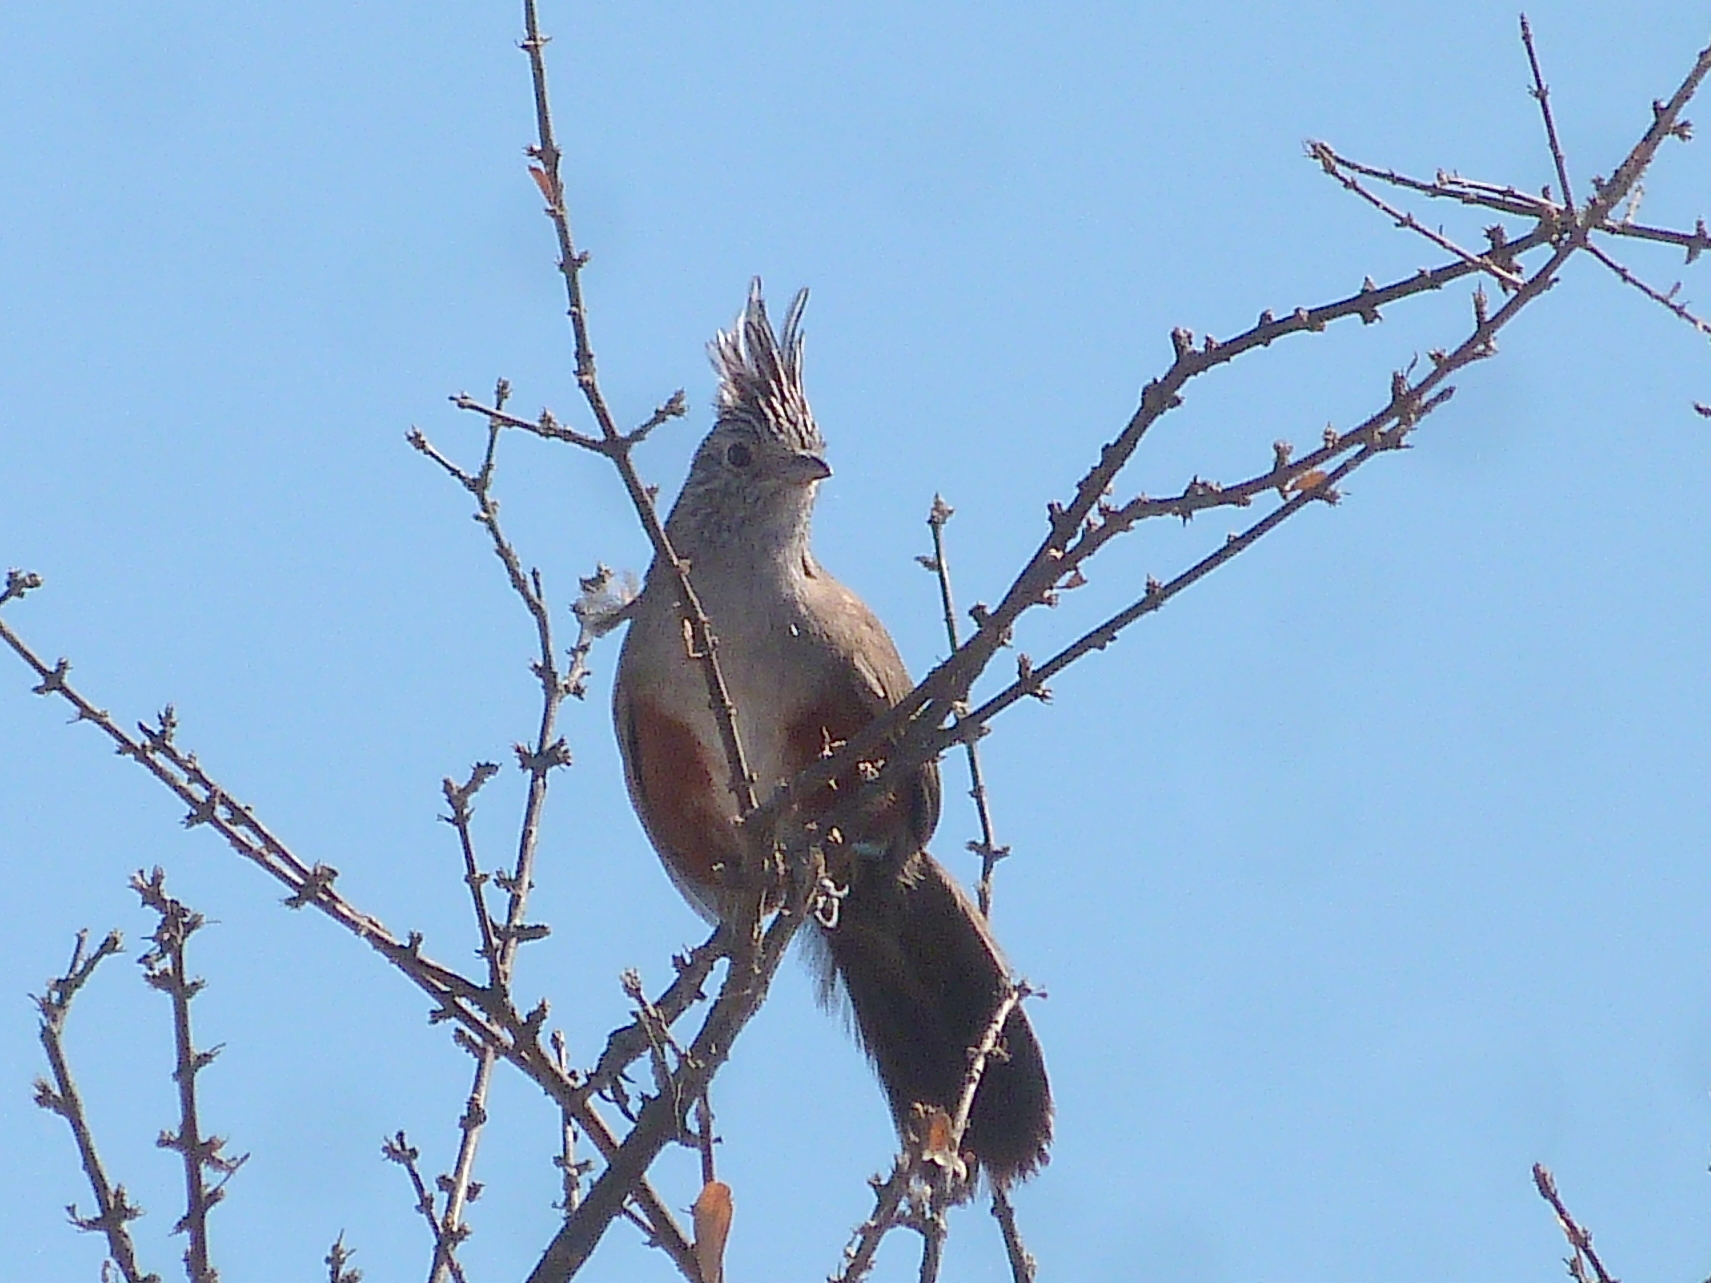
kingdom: Animalia
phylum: Chordata
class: Aves
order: Passeriformes
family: Rhinocryptidae
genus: Rhinocrypta
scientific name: Rhinocrypta lanceolata
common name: Crested gallito
